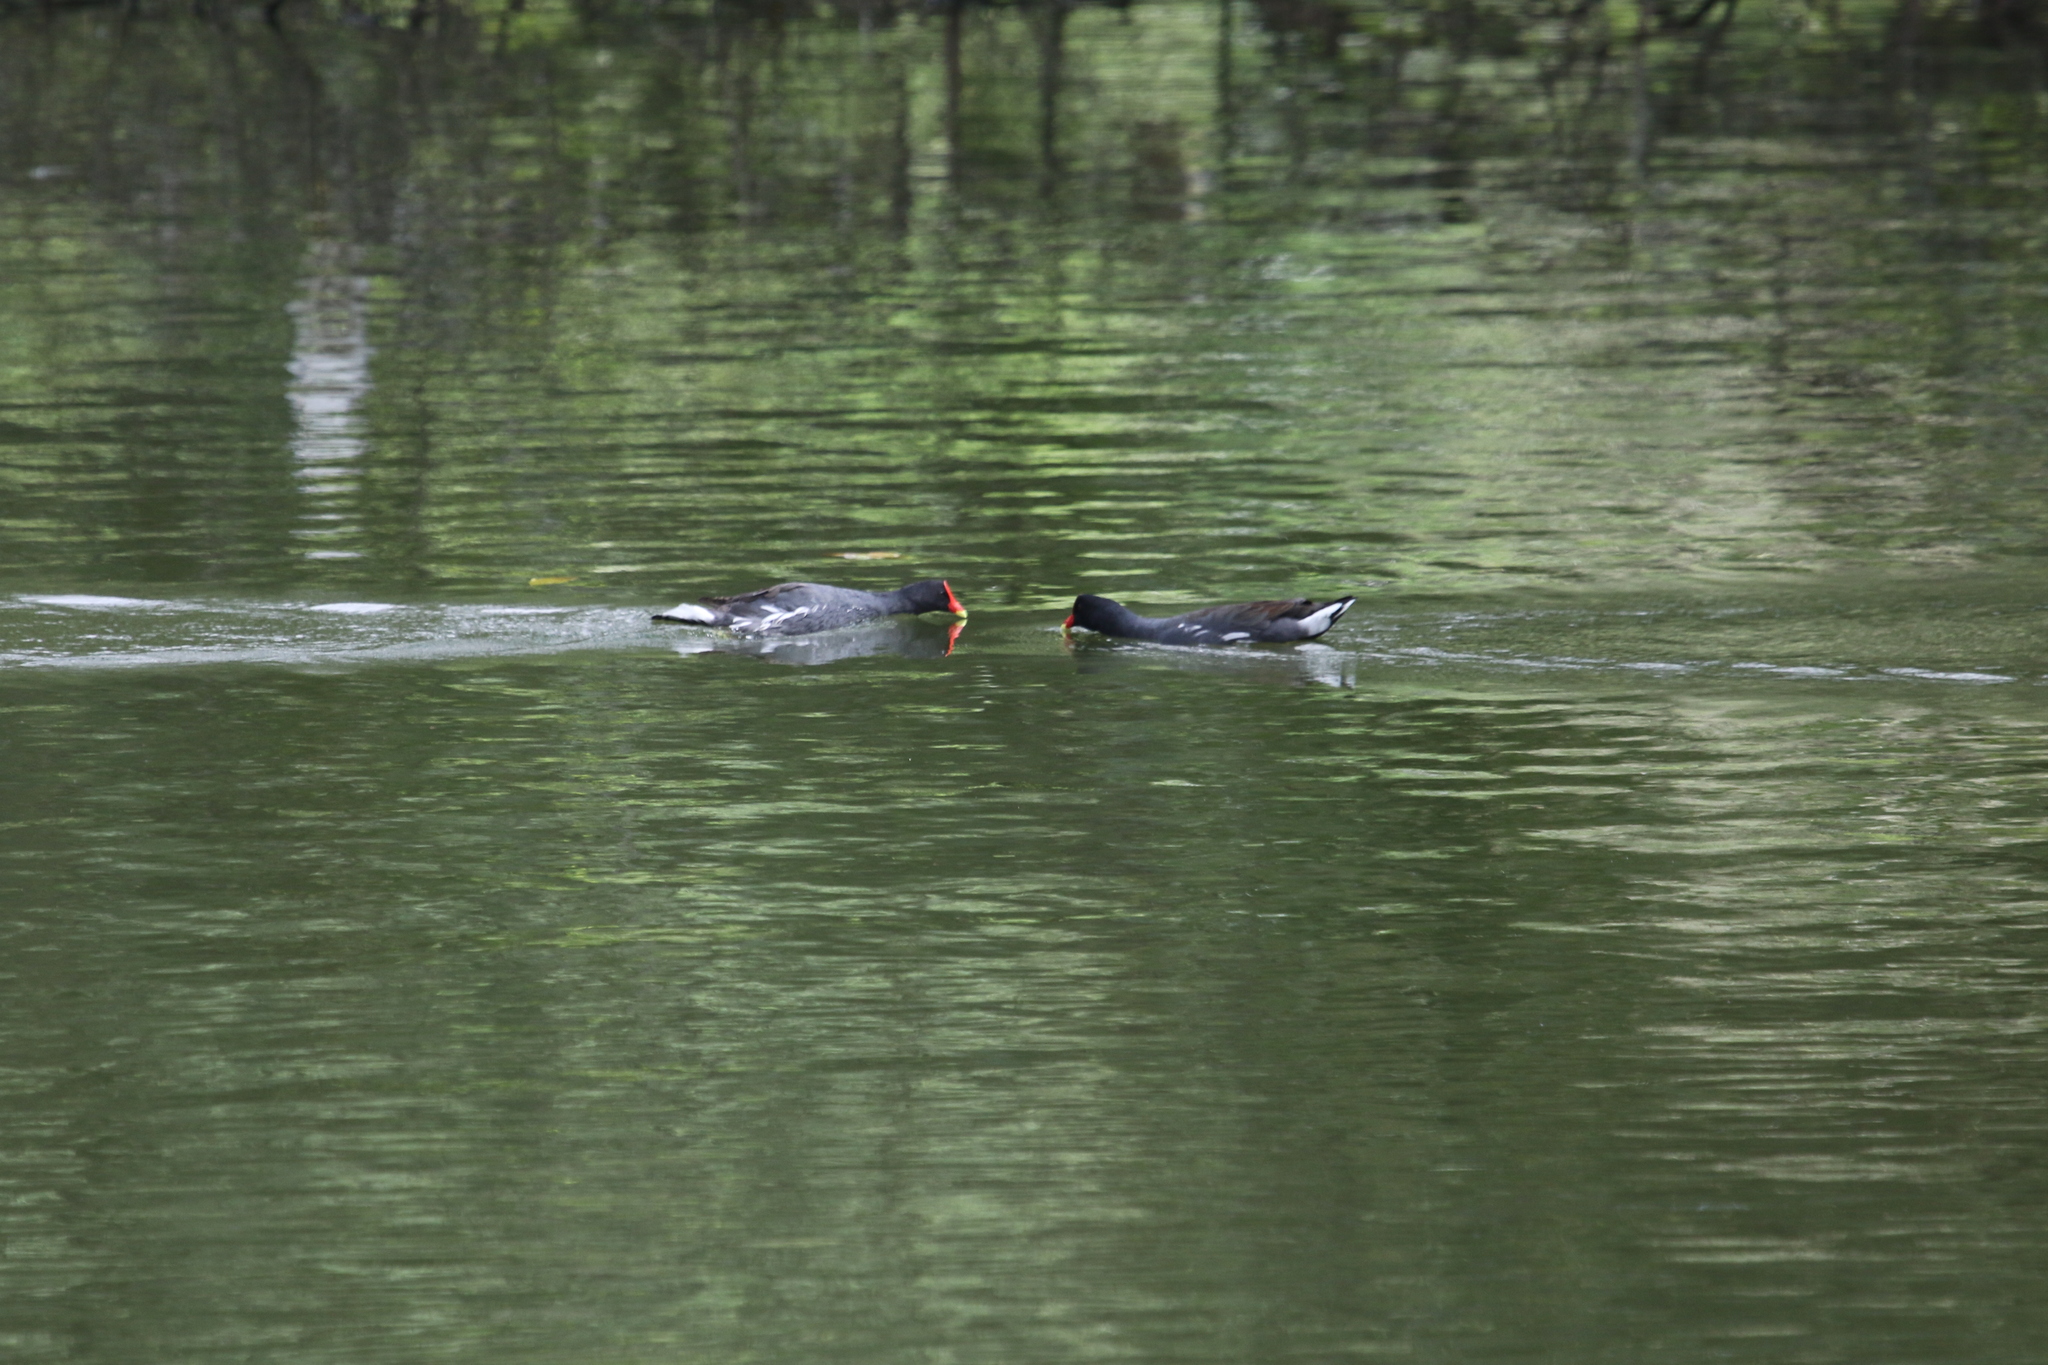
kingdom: Animalia
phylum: Chordata
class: Aves
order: Gruiformes
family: Rallidae
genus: Gallinula
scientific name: Gallinula chloropus
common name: Common moorhen
